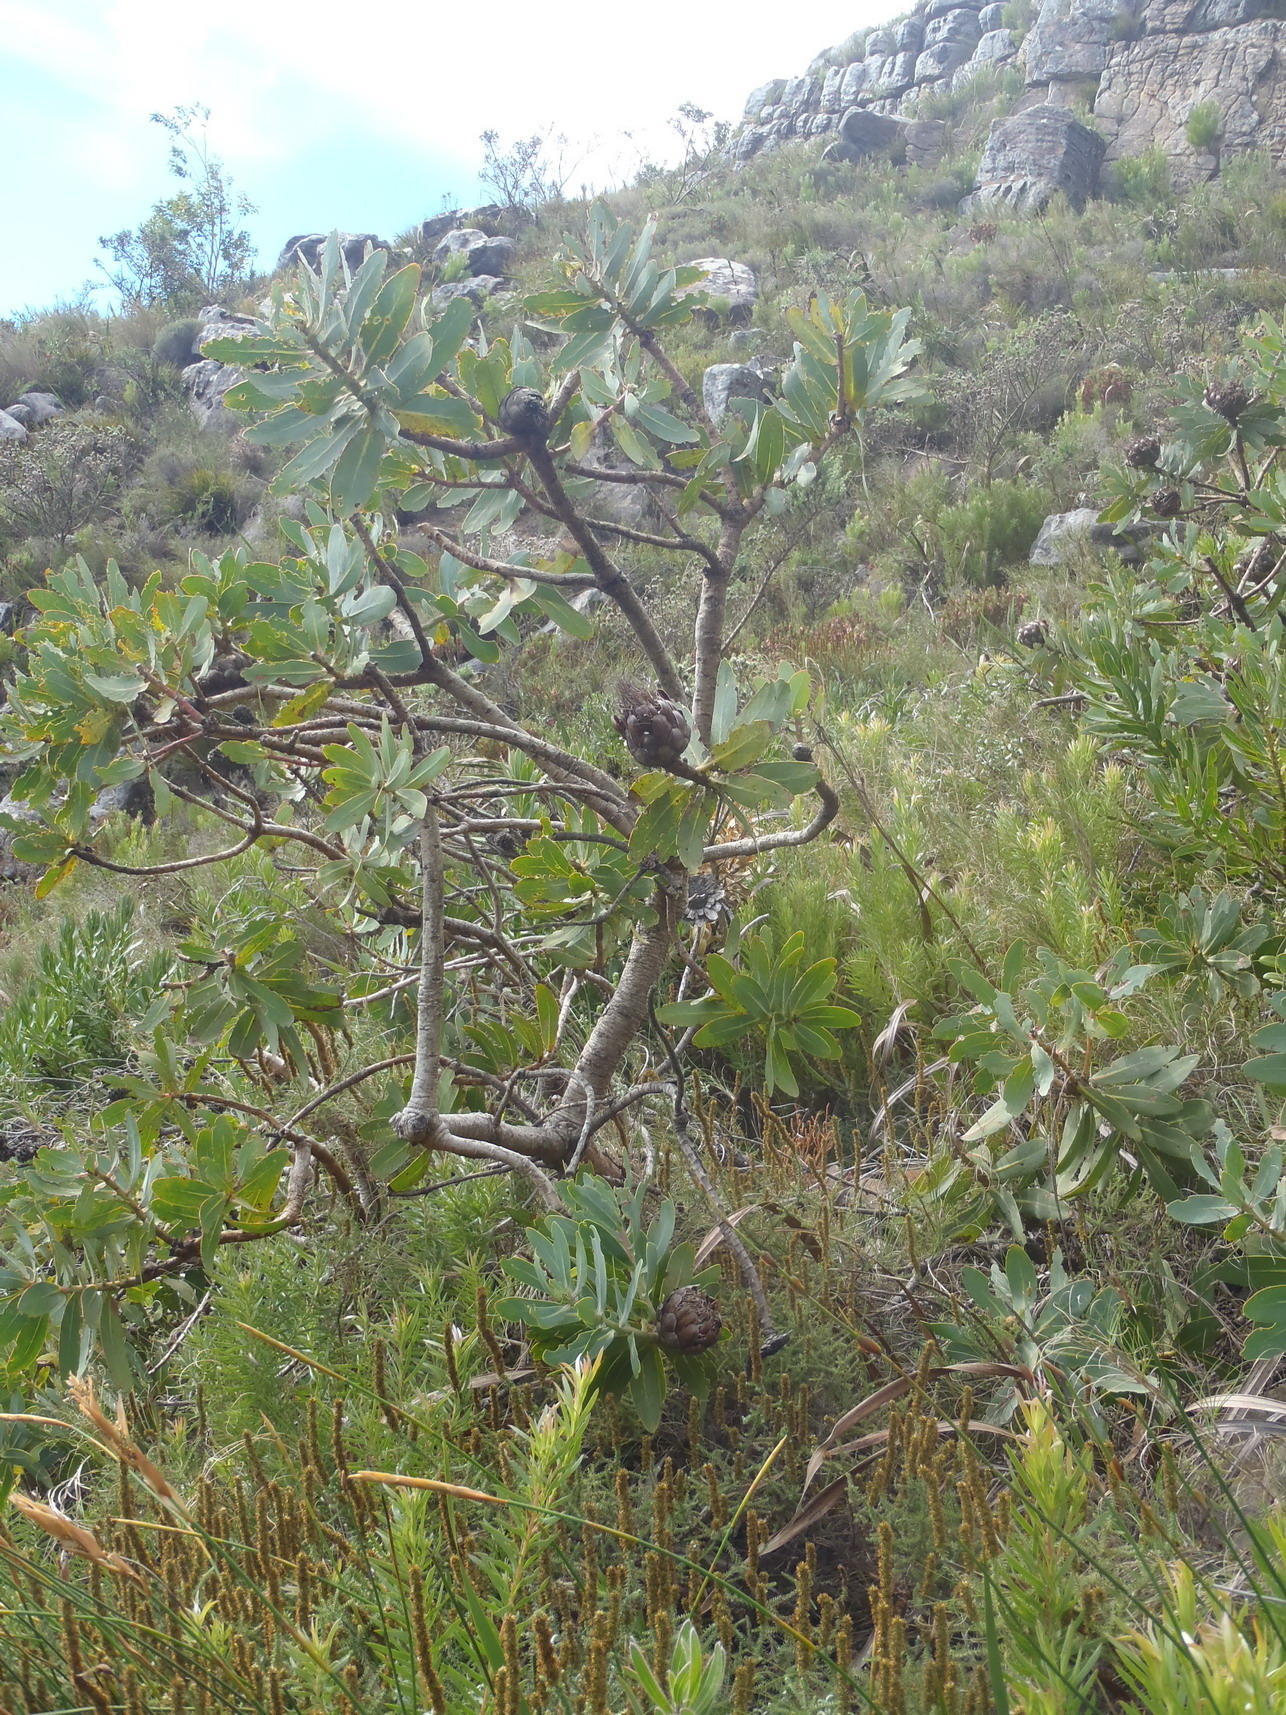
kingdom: Plantae
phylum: Tracheophyta
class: Magnoliopsida
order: Proteales
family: Proteaceae
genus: Protea
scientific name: Protea nitida
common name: Tree protea
